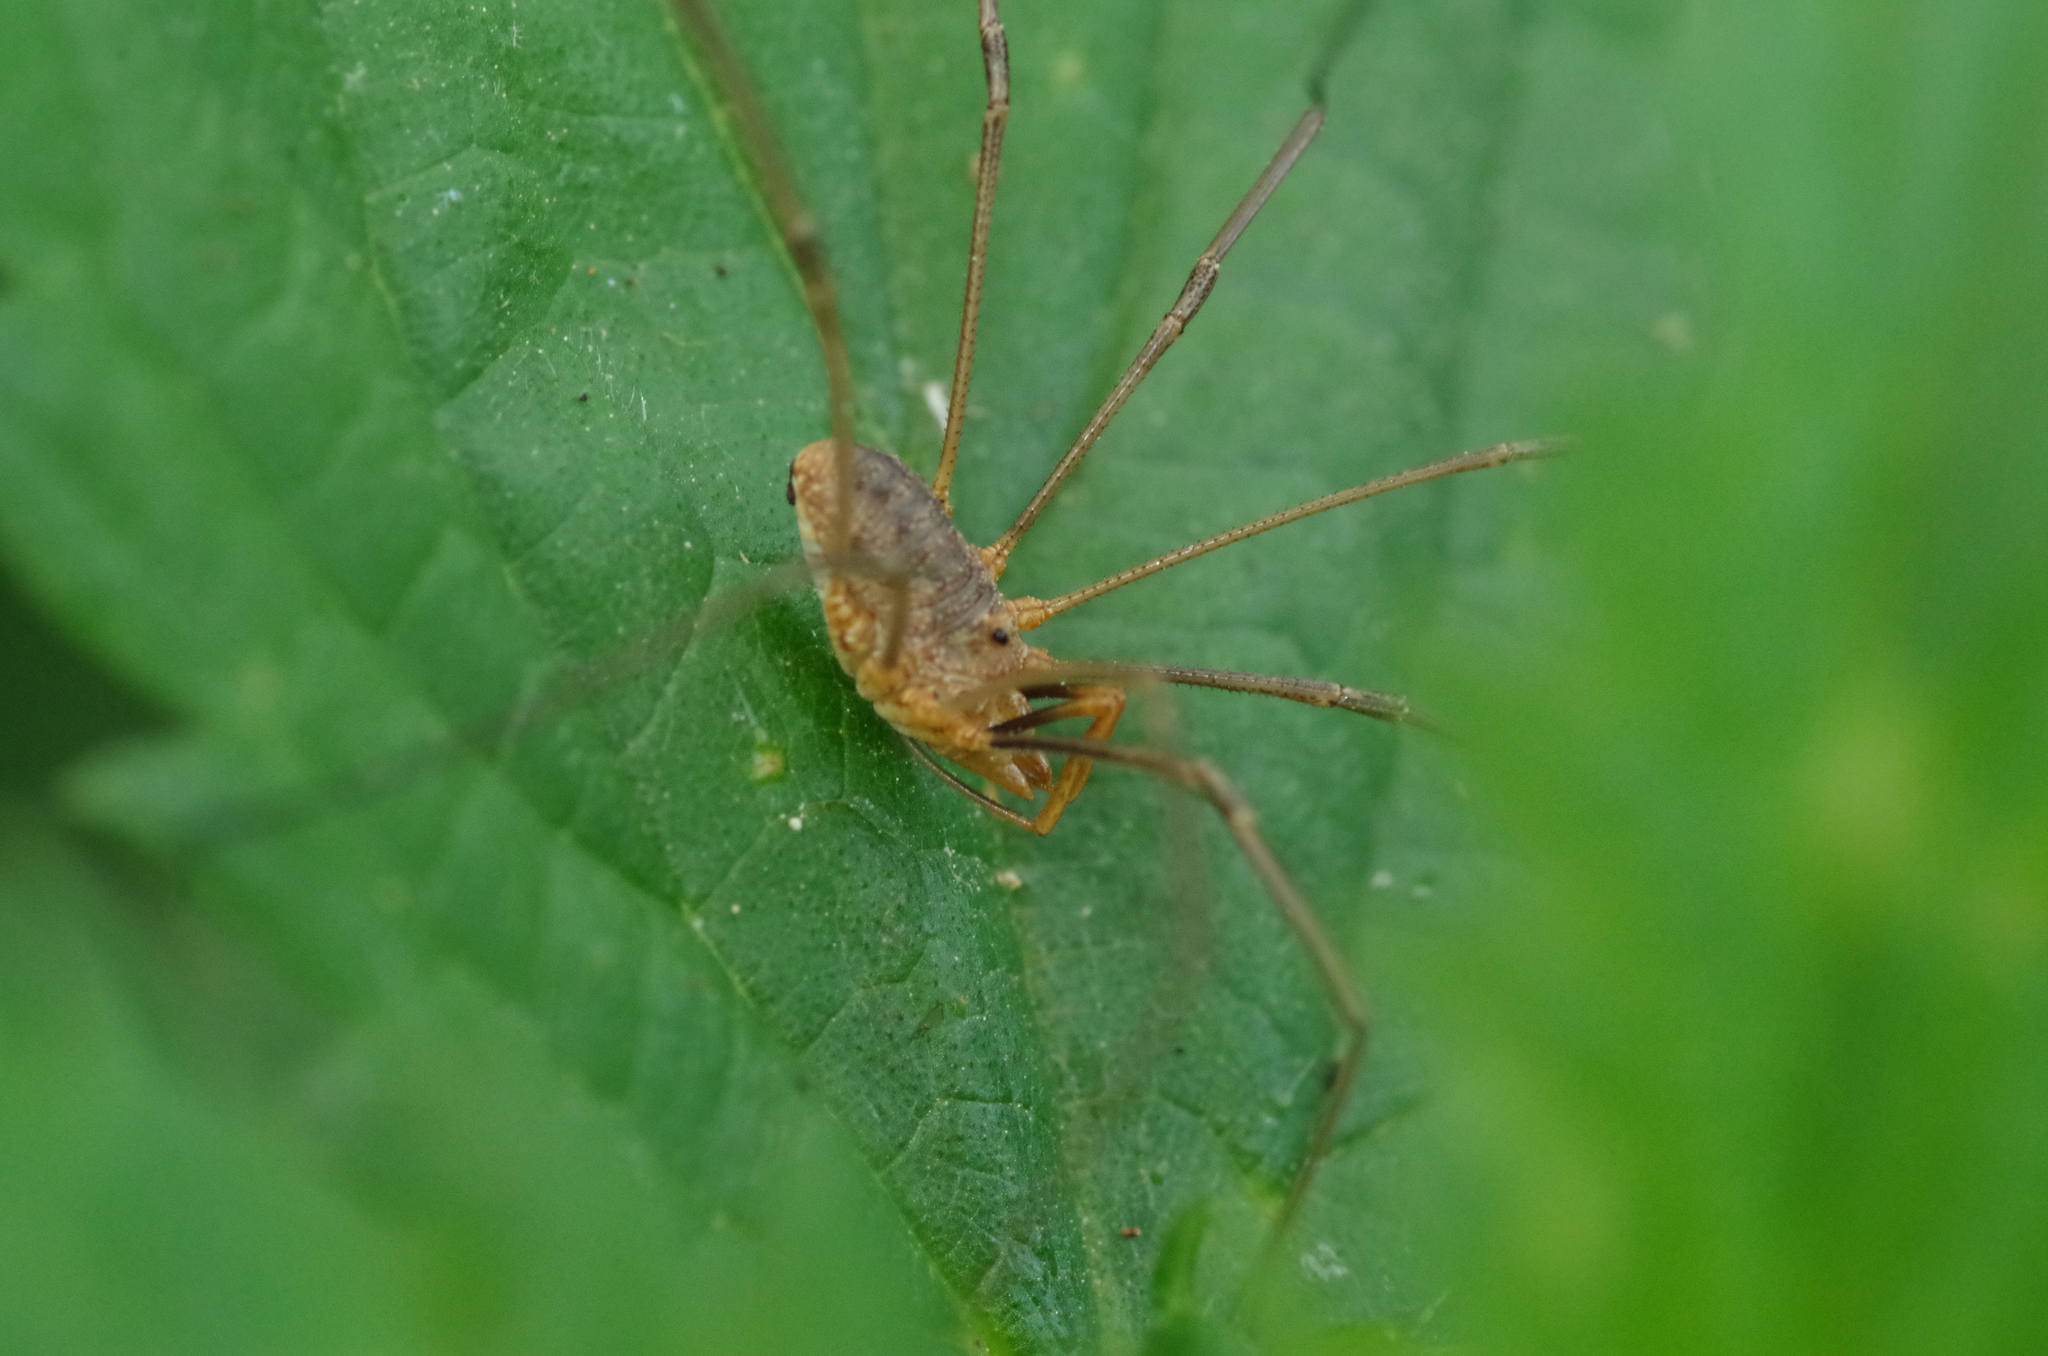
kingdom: Animalia
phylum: Arthropoda
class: Arachnida
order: Opiliones
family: Phalangiidae
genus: Phalangium
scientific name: Phalangium opilio
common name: Daddy longleg
